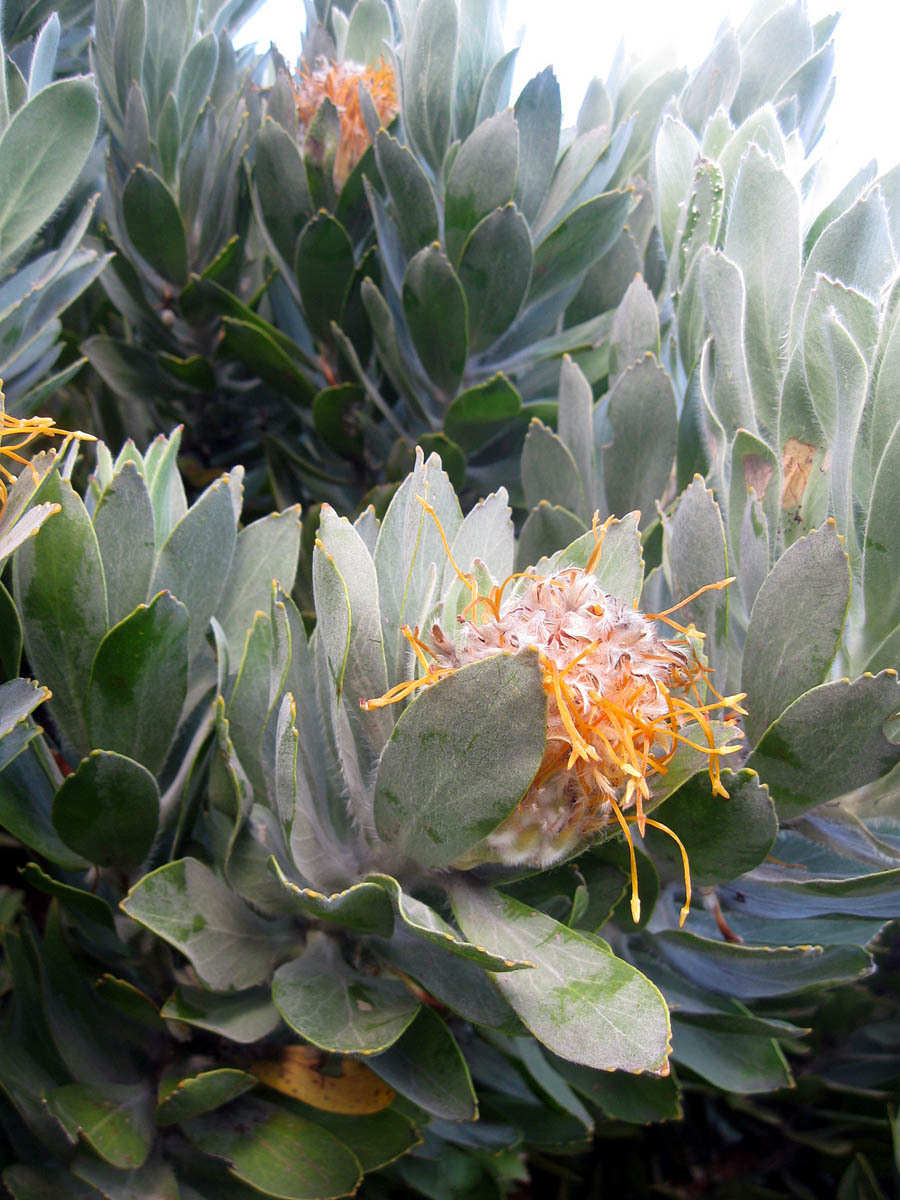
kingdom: Plantae
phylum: Tracheophyta
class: Magnoliopsida
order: Proteales
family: Proteaceae
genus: Leucospermum
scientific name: Leucospermum conocarpodendron
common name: Tree pincushion
